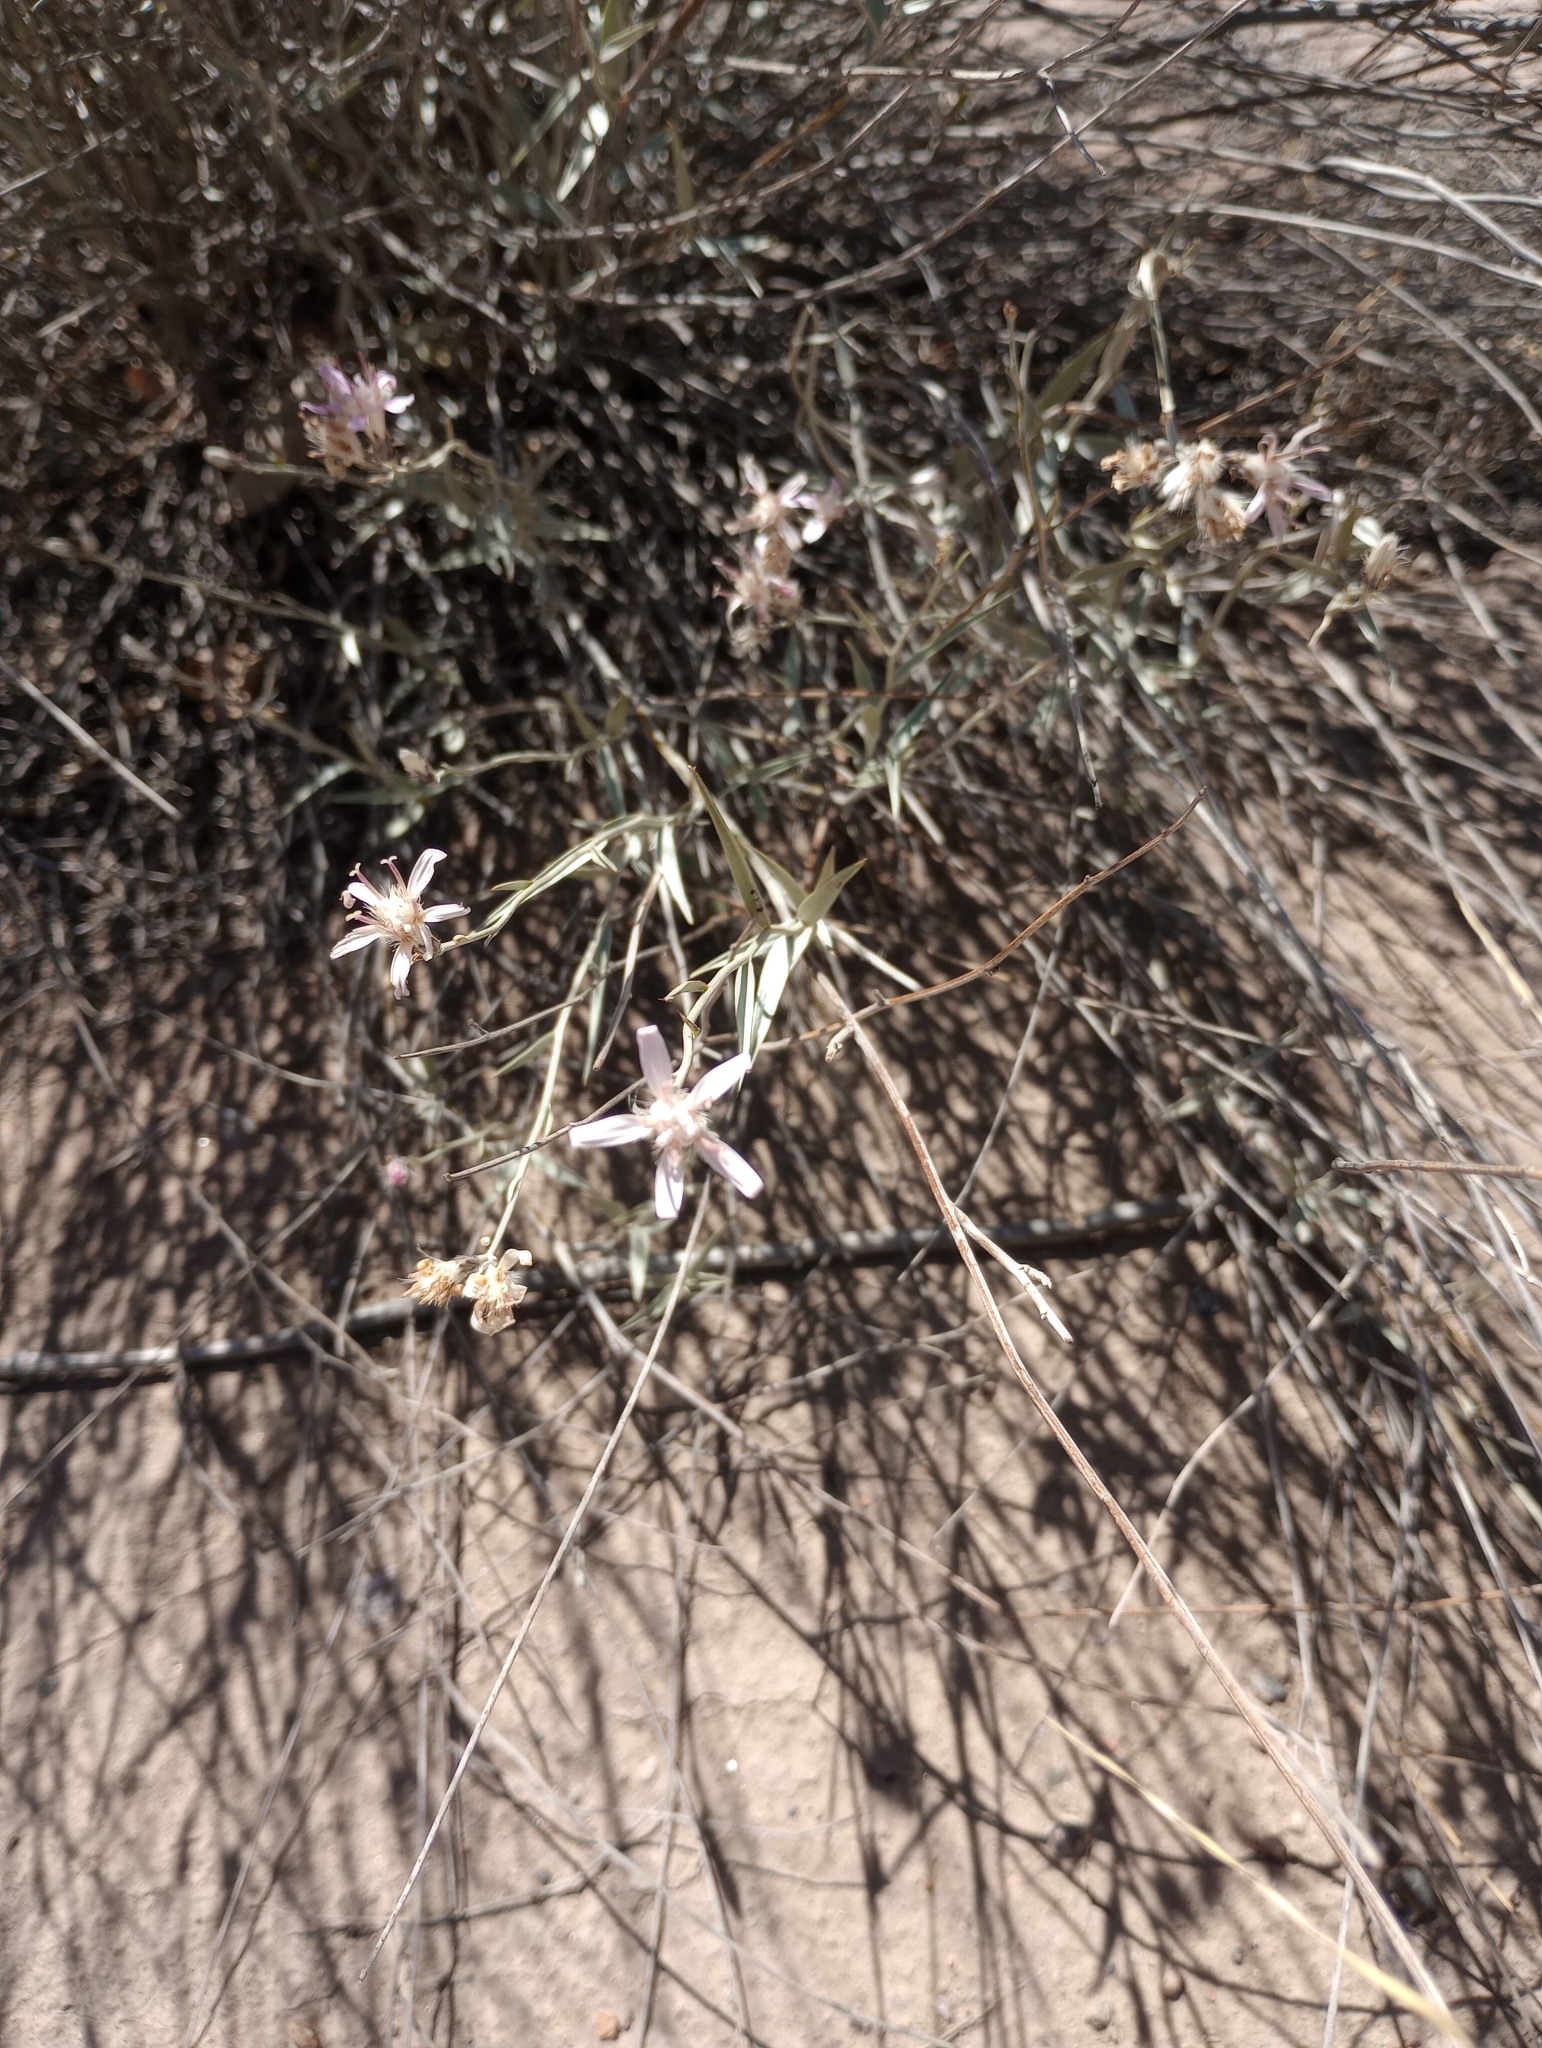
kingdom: Plantae
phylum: Tracheophyta
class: Magnoliopsida
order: Asterales
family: Asteraceae
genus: Hyalis
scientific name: Hyalis argentea
